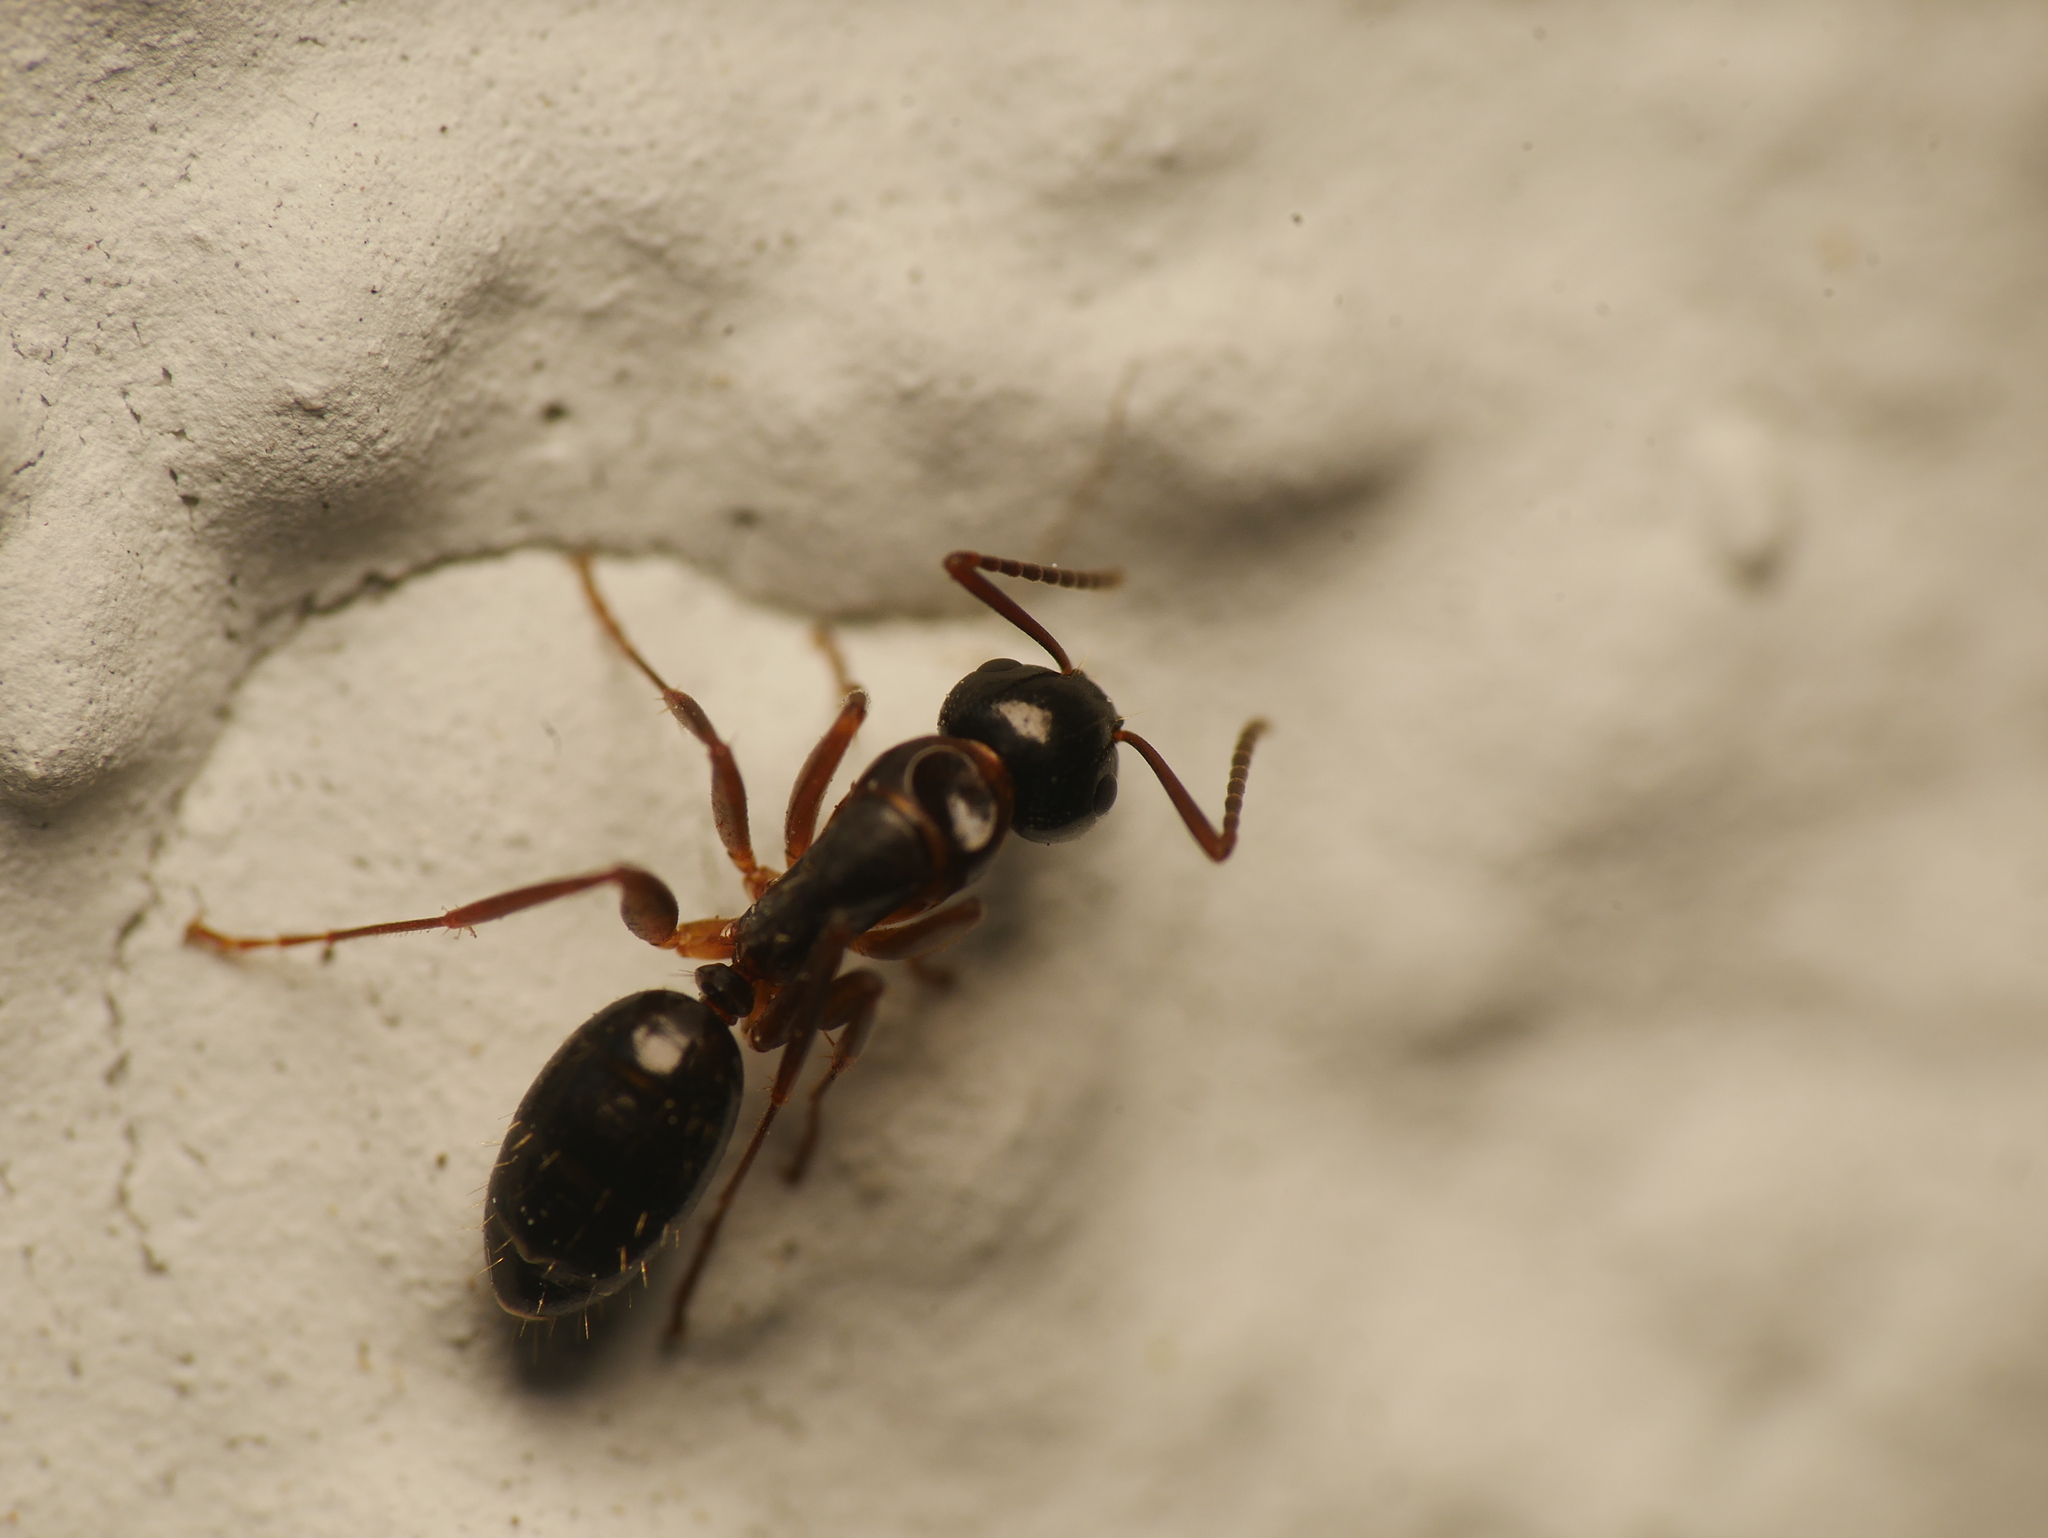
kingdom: Animalia
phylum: Arthropoda
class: Insecta
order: Hymenoptera
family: Formicidae
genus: Camponotus
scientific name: Camponotus fallax
